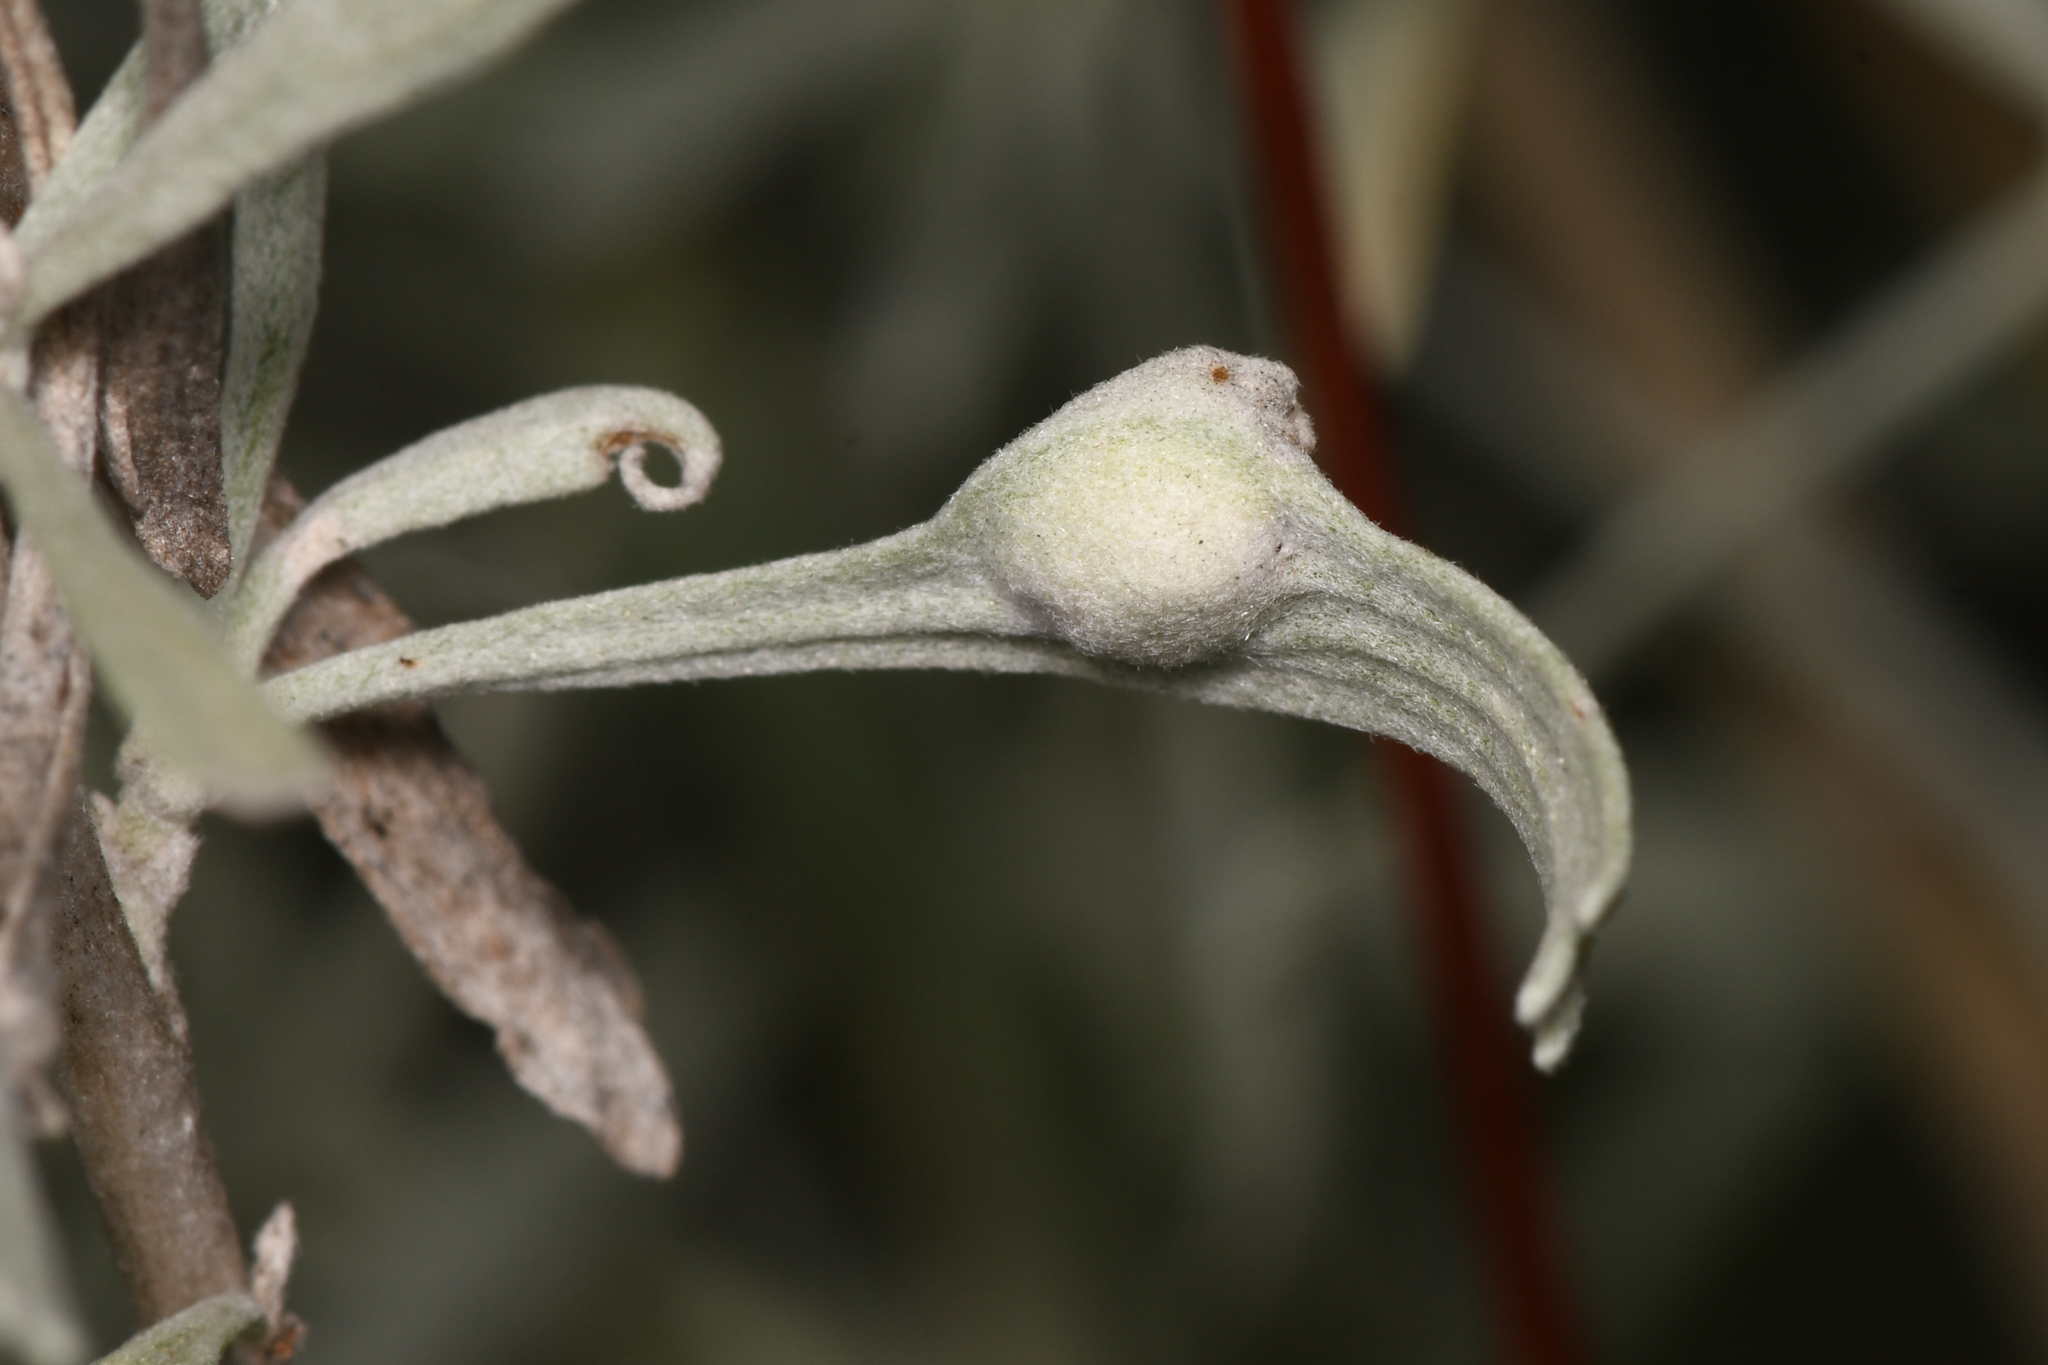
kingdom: Animalia
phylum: Arthropoda
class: Insecta
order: Diptera
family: Cecidomyiidae
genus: Rhopalomyia
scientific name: Rhopalomyia tumidibulla
